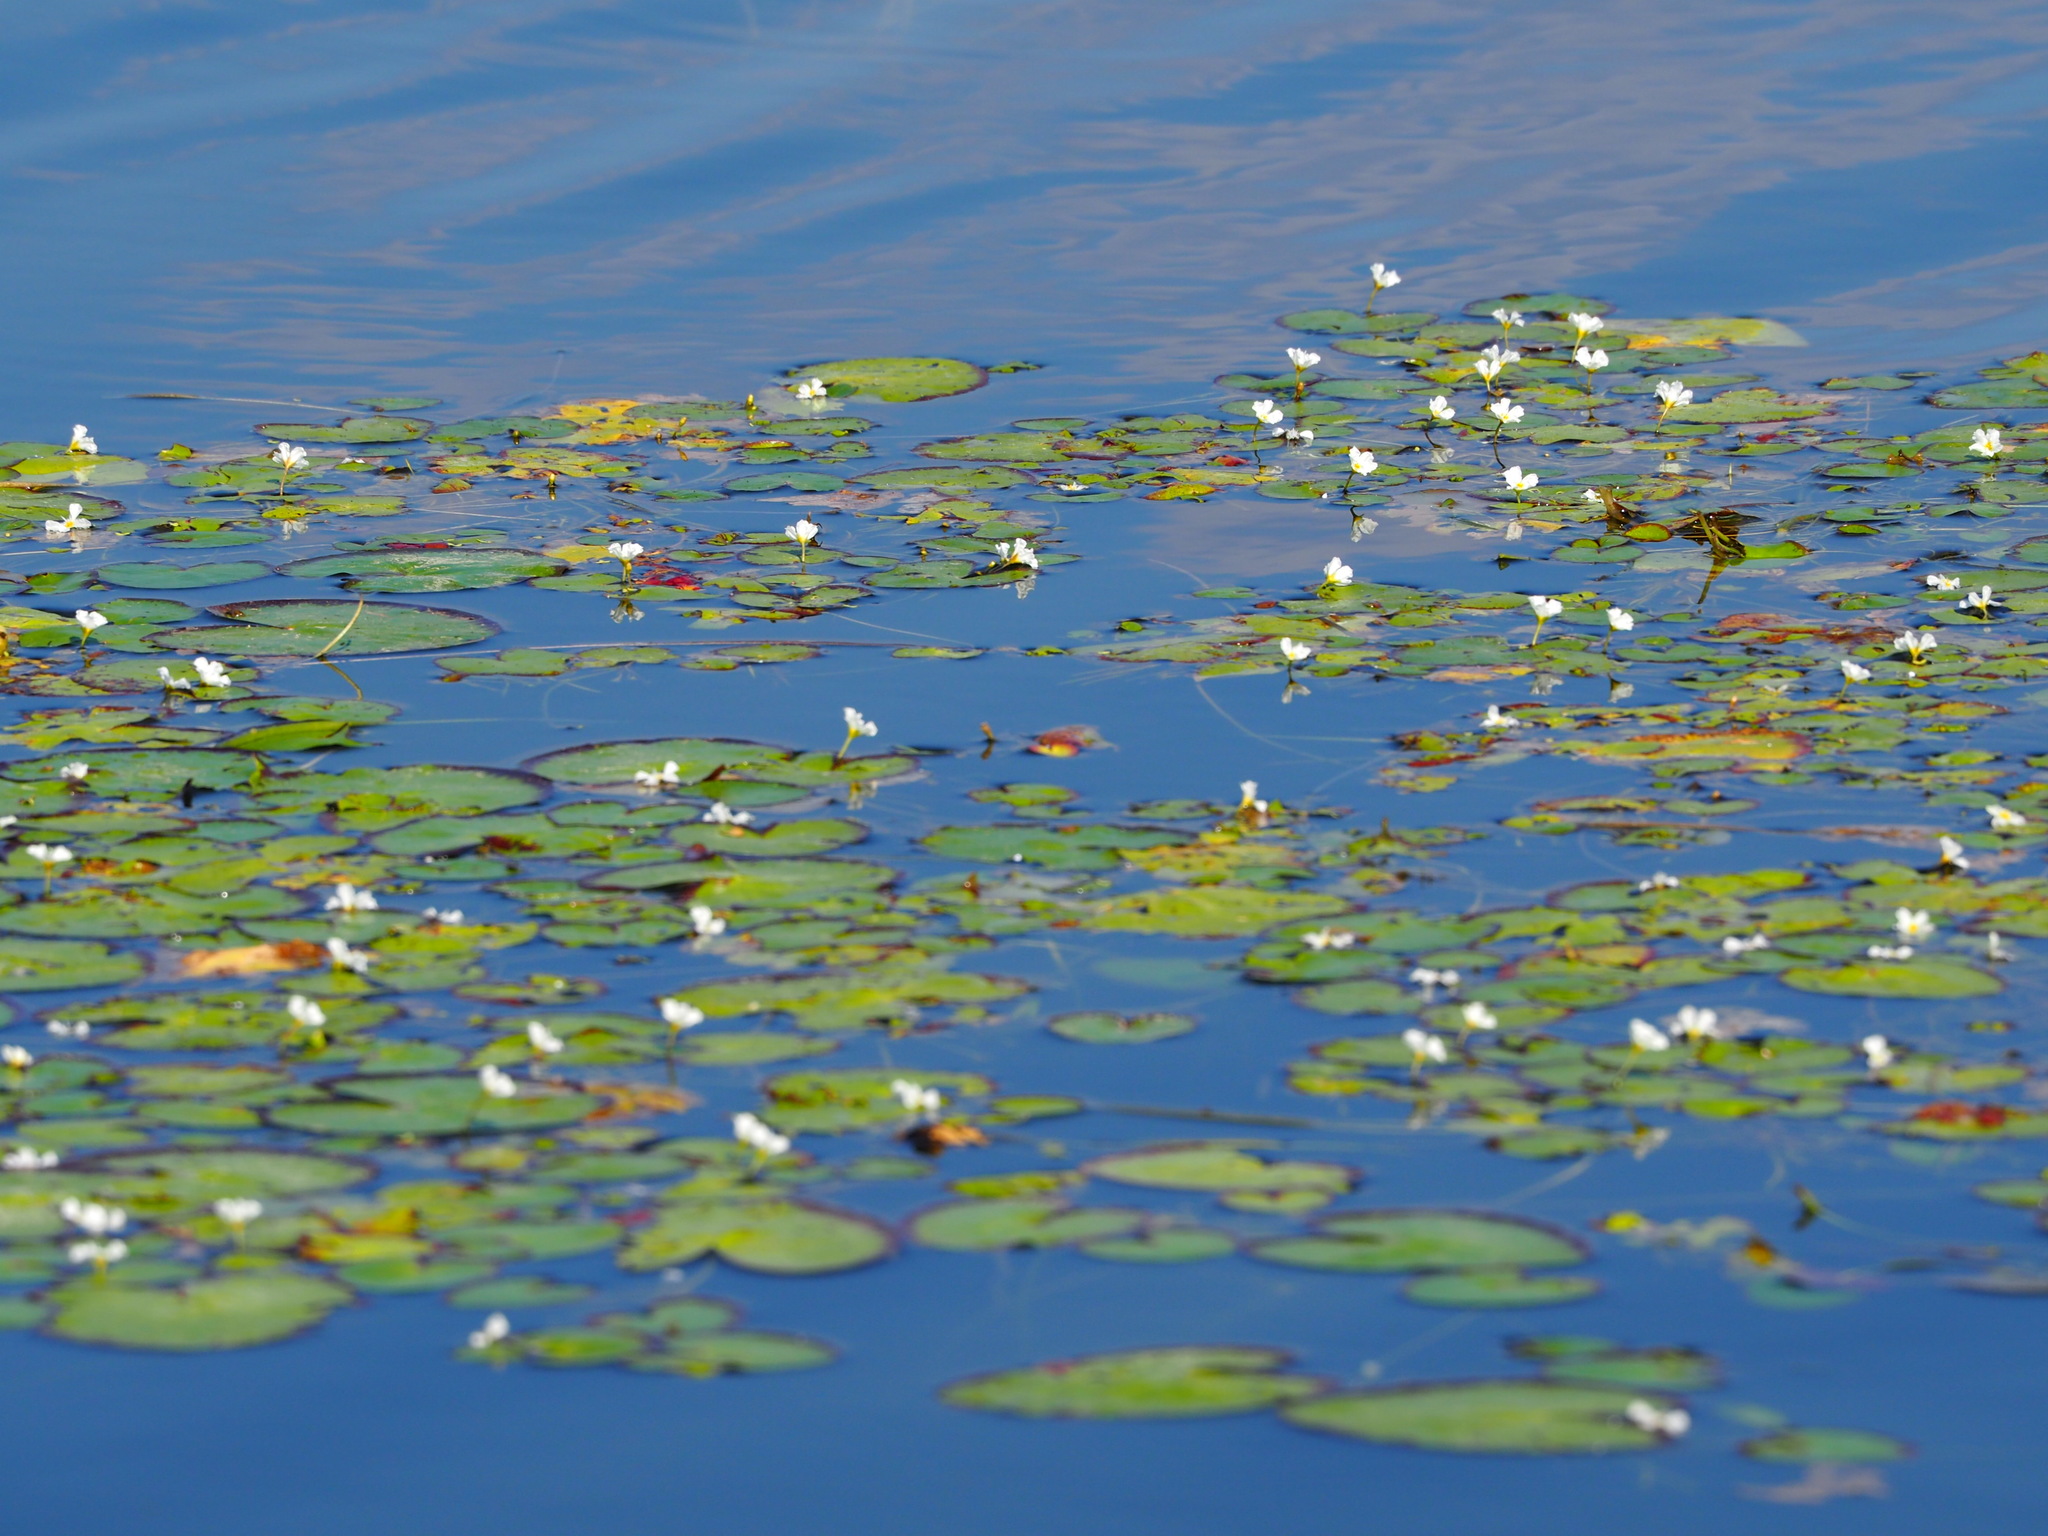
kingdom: Plantae
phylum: Tracheophyta
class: Magnoliopsida
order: Asterales
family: Menyanthaceae
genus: Nymphoides
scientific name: Nymphoides hydrophylla
